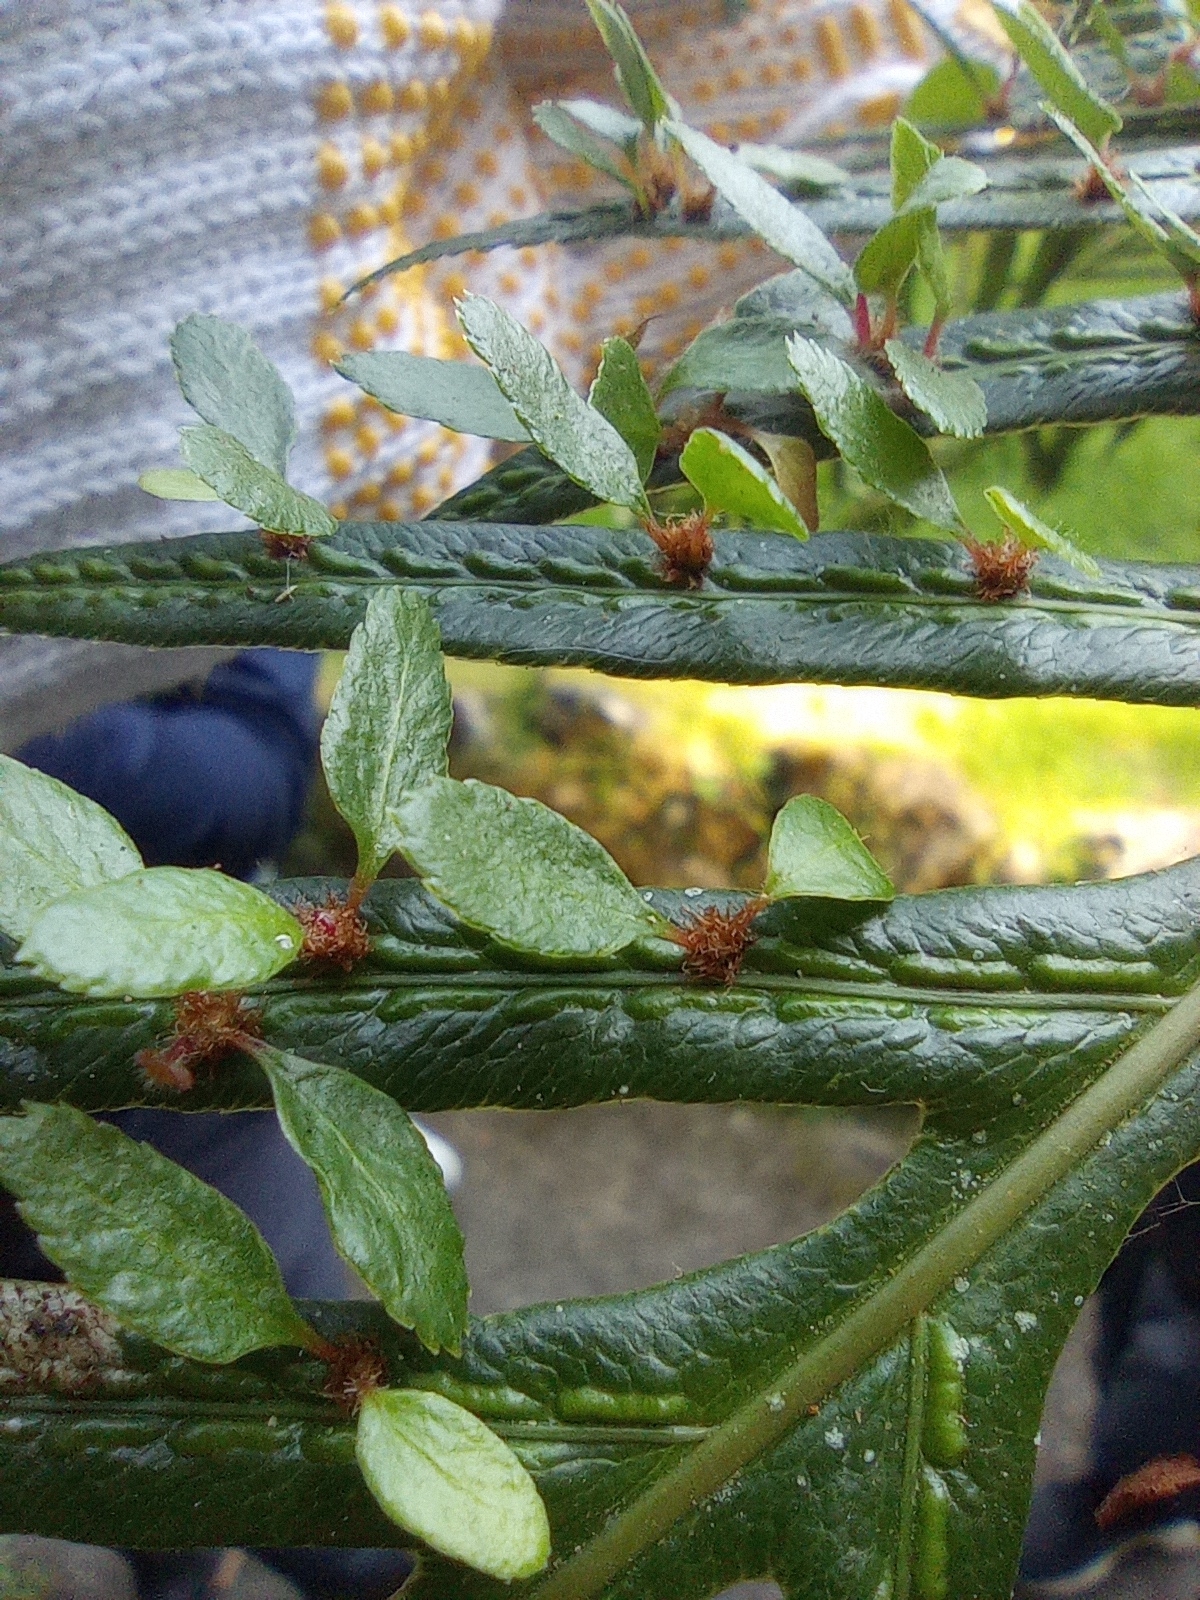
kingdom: Plantae
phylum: Tracheophyta
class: Polypodiopsida
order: Polypodiales
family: Blechnaceae
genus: Woodwardia
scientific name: Woodwardia prolifera
